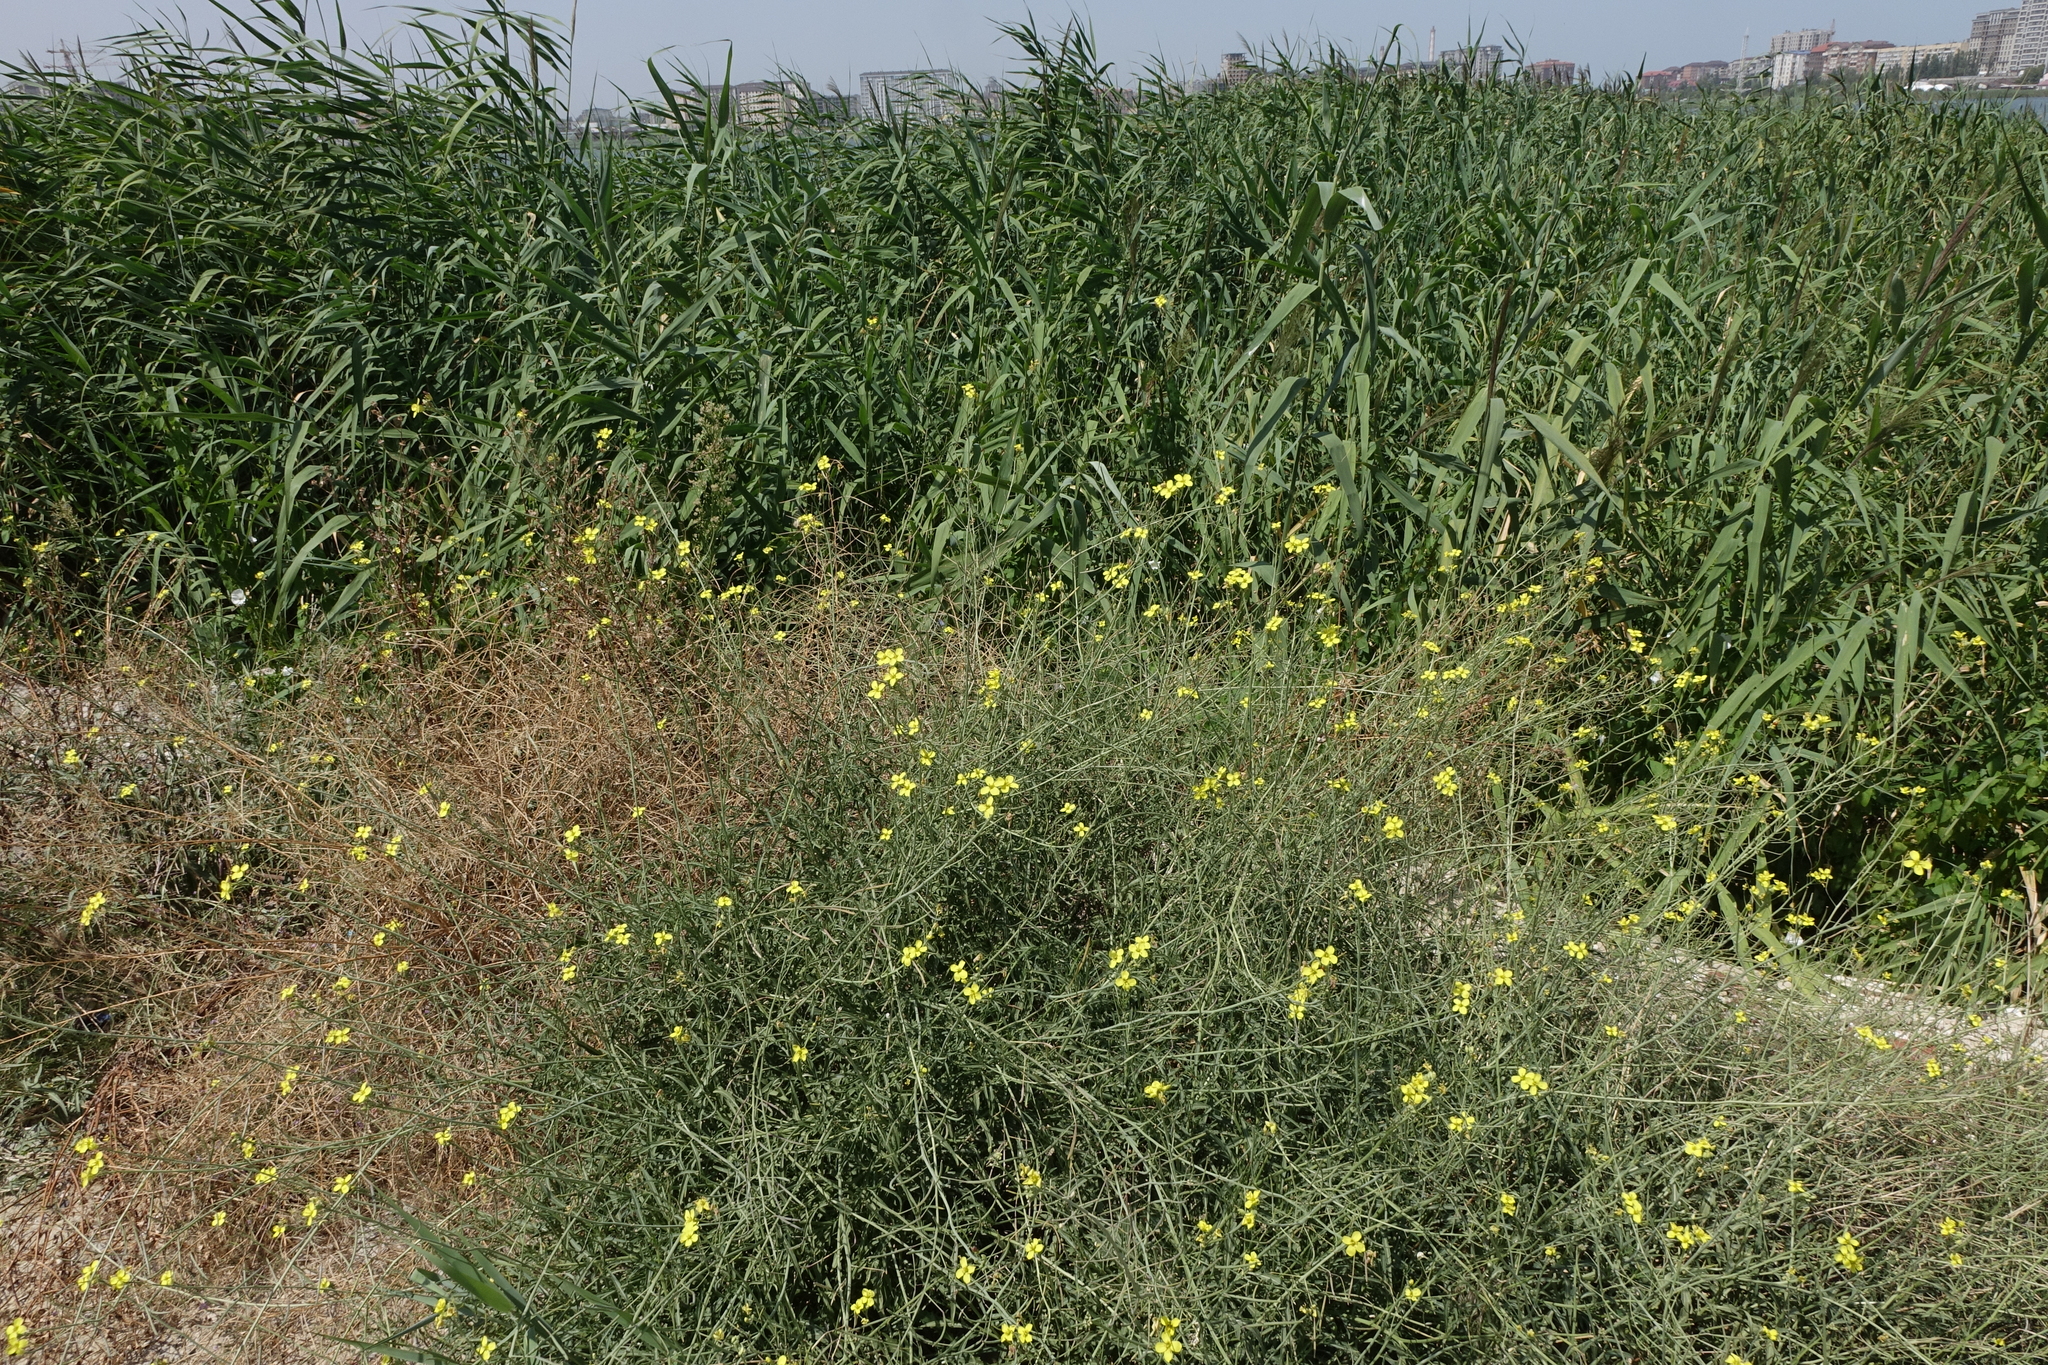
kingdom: Plantae
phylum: Tracheophyta
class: Liliopsida
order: Poales
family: Poaceae
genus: Phragmites
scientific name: Phragmites australis
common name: Common reed
